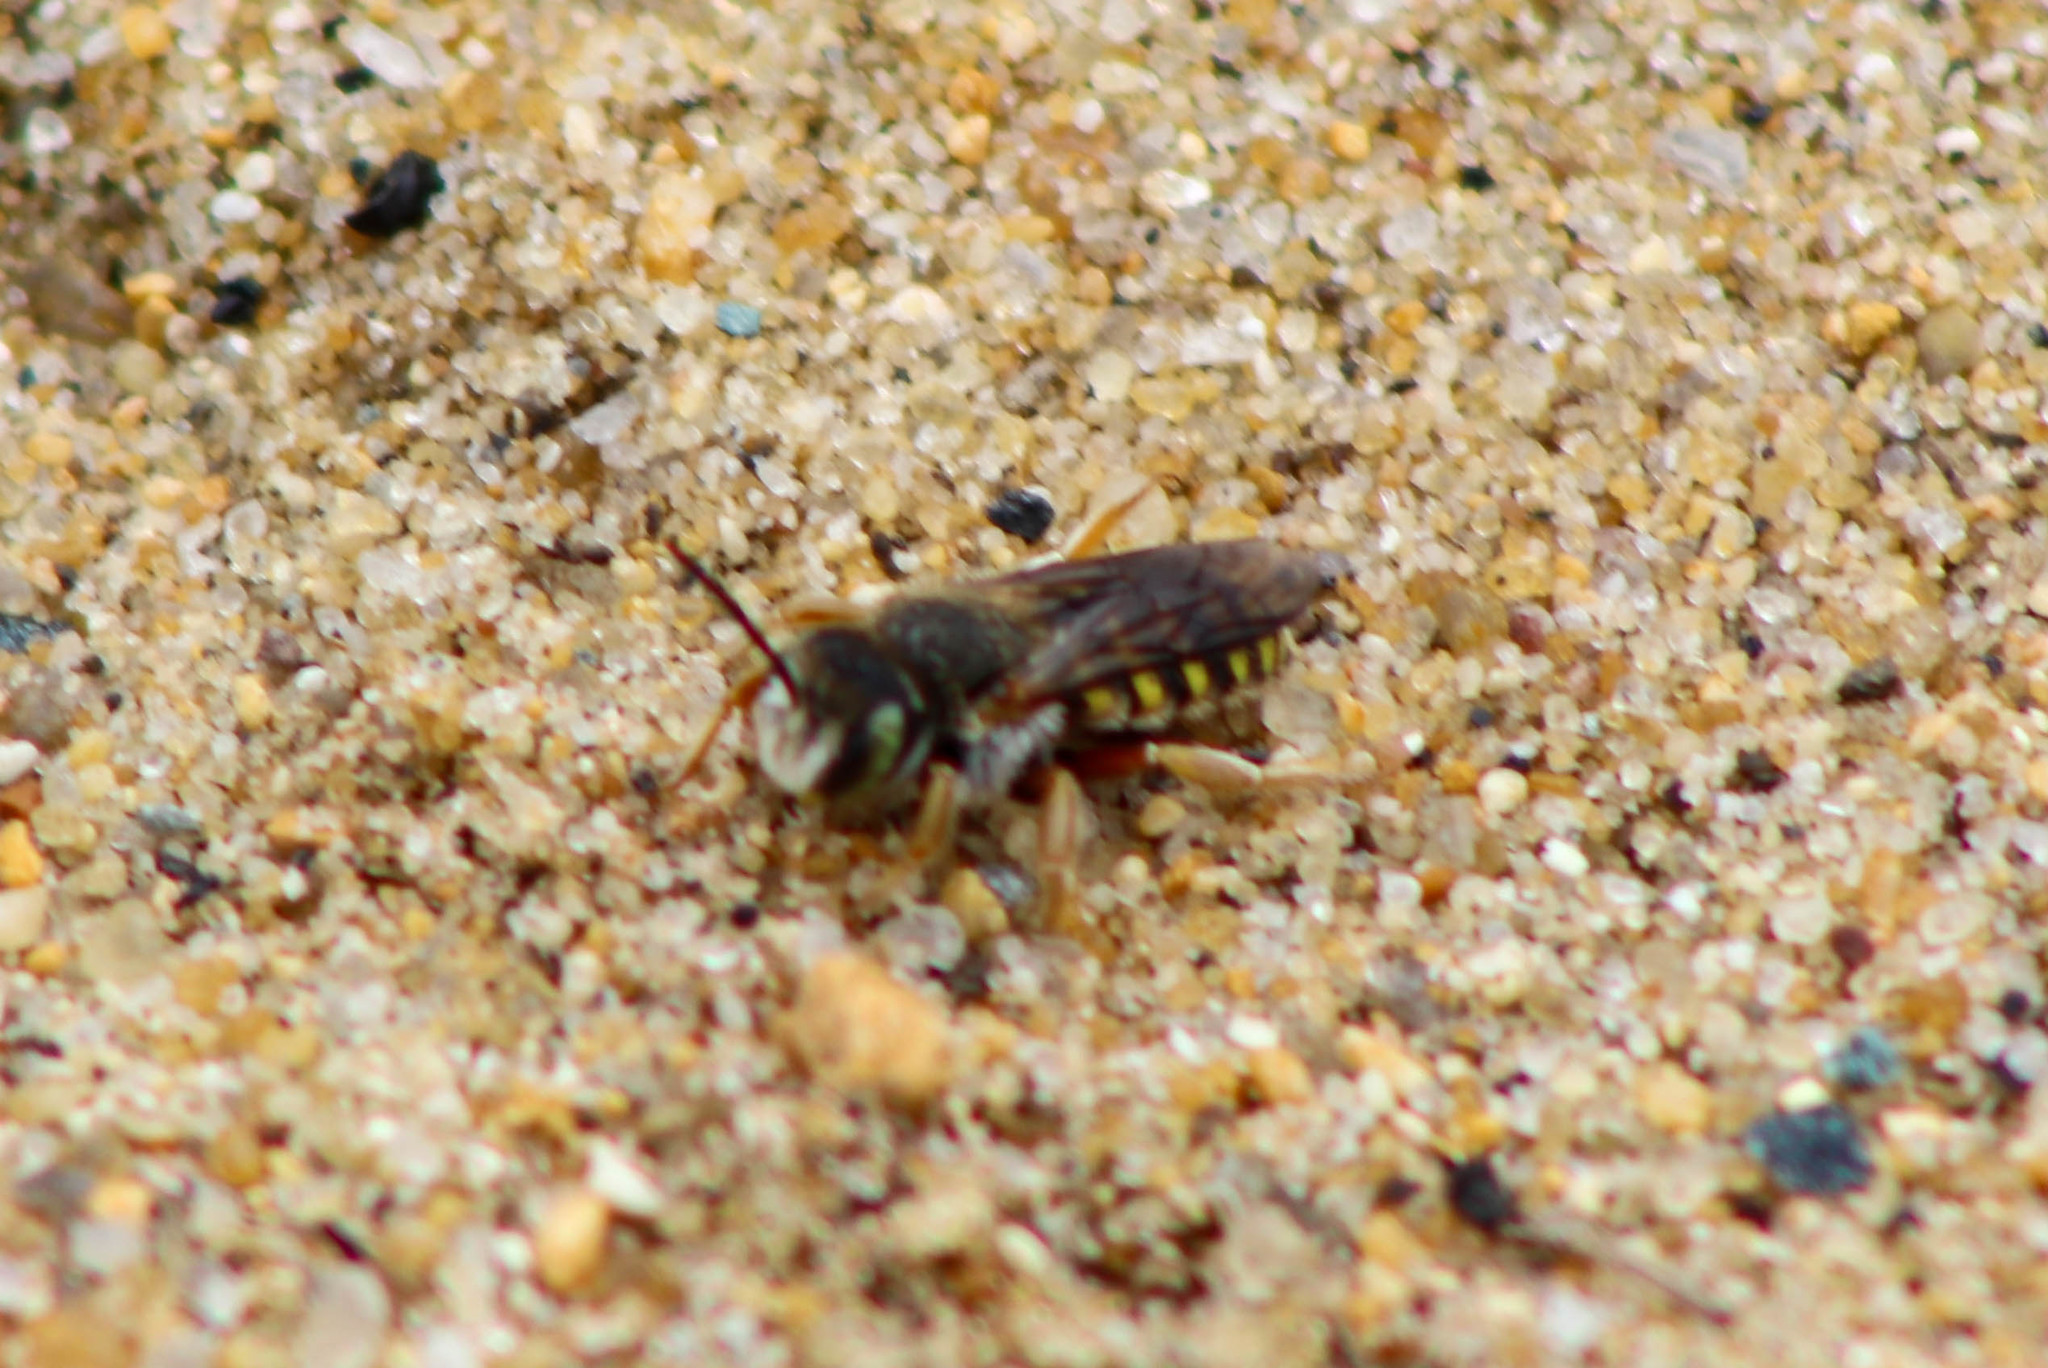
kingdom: Animalia
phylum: Arthropoda
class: Insecta
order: Hymenoptera
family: Megachilidae
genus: Anthidium
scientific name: Anthidium oblongatum
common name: Oblong wool carder bee
